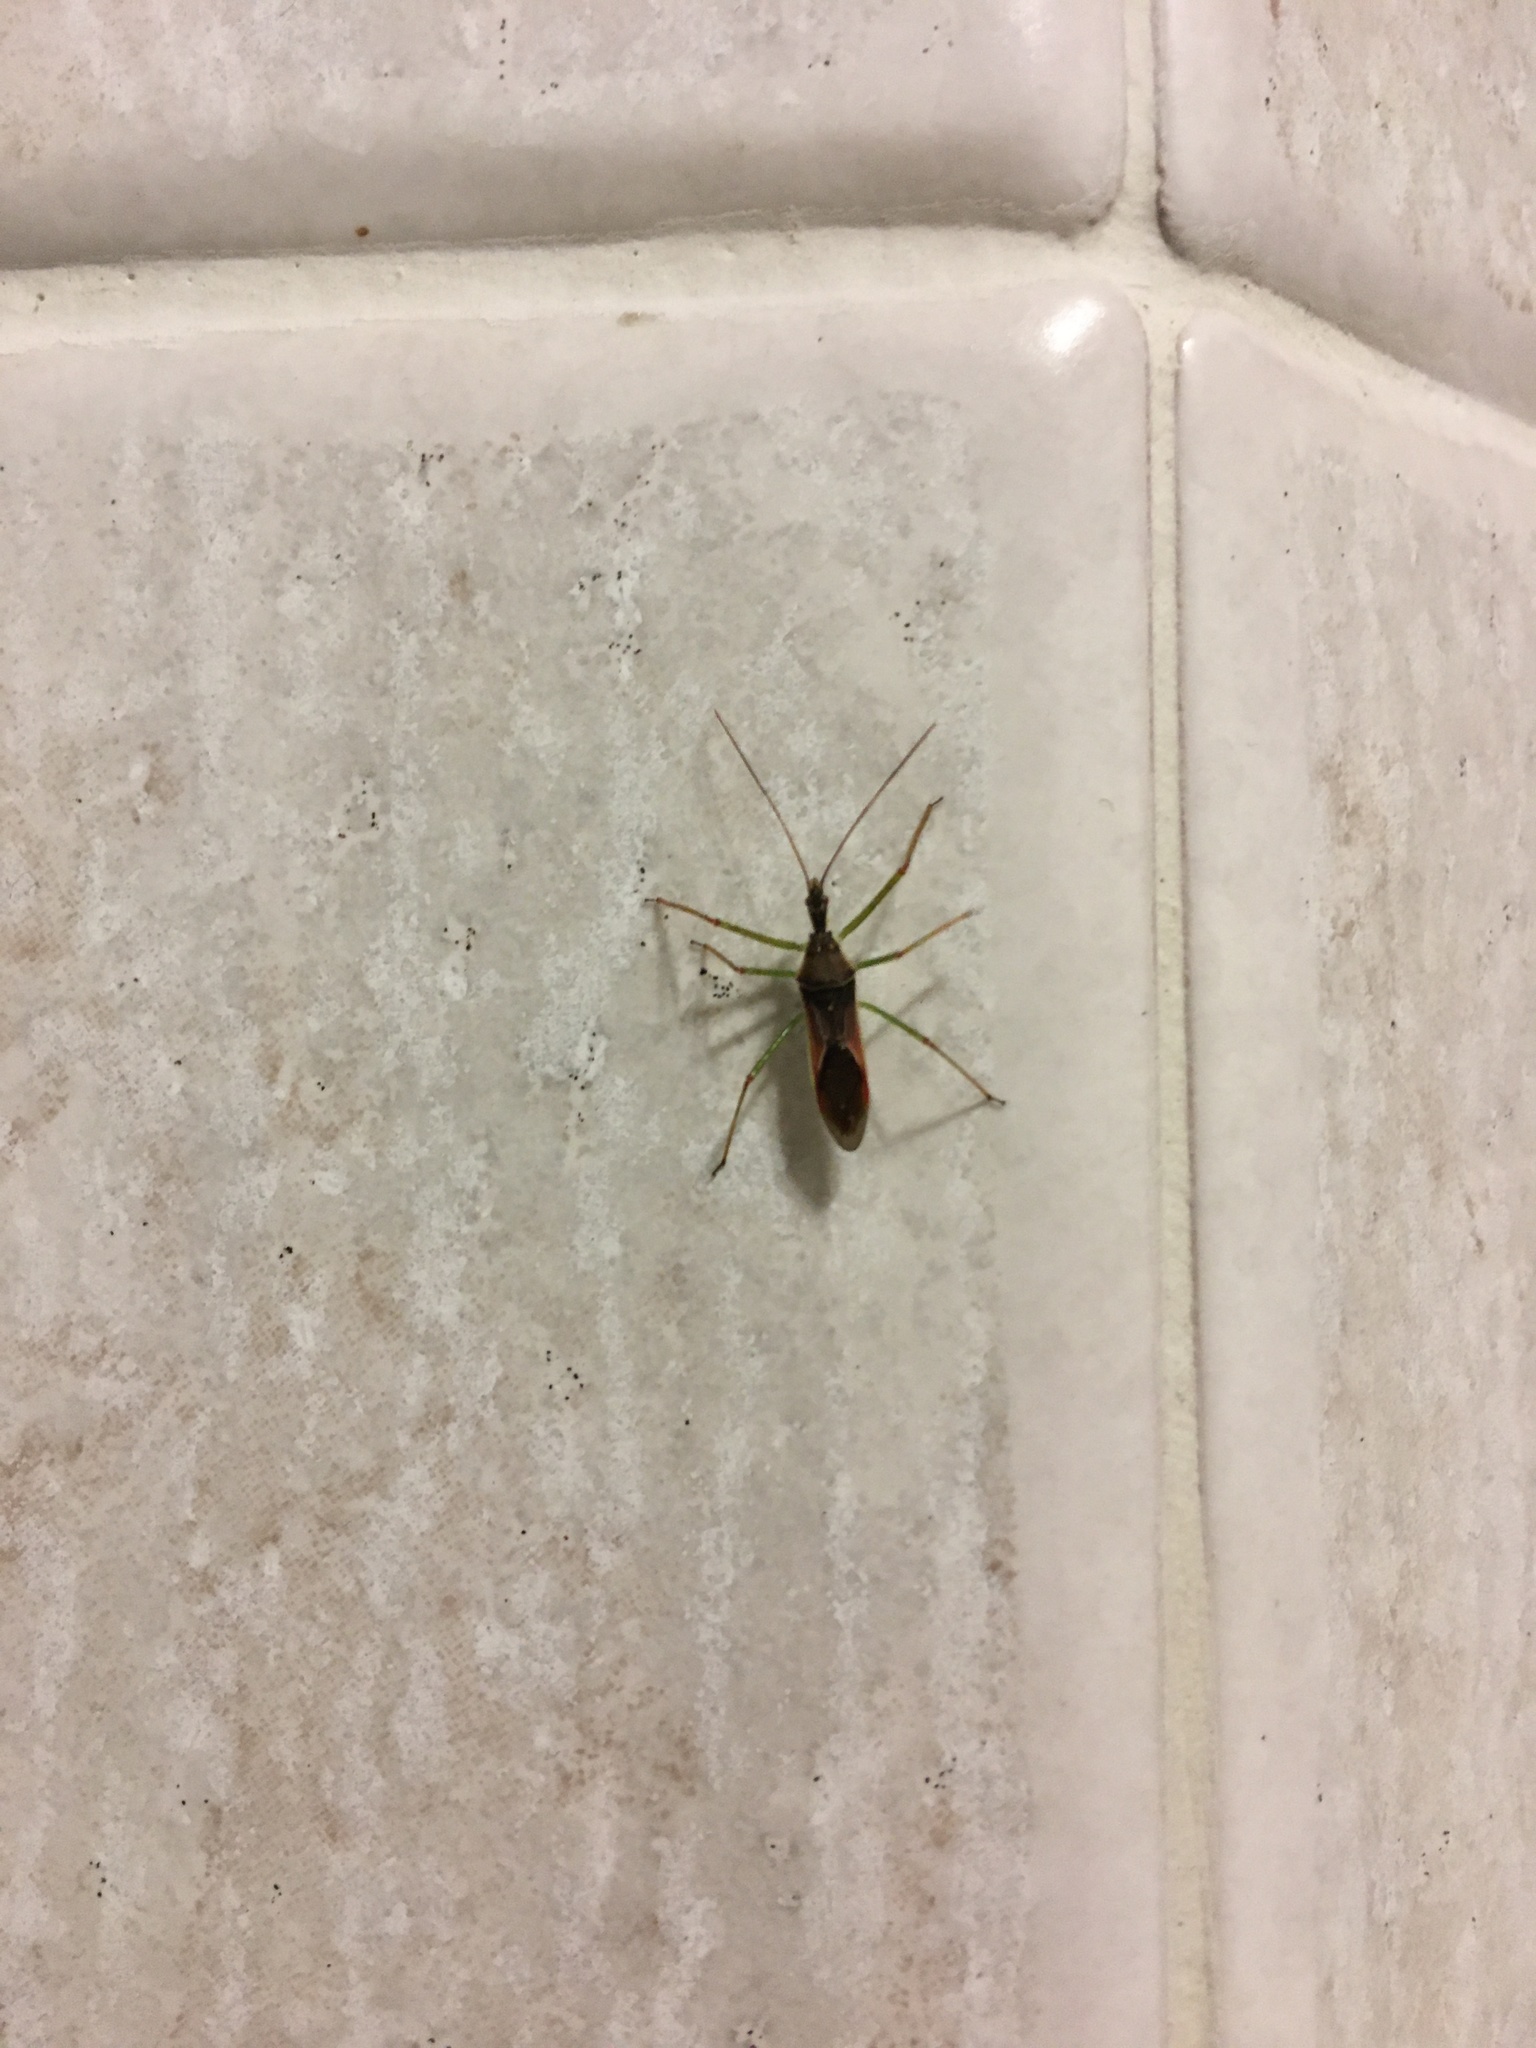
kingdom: Animalia
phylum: Arthropoda
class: Insecta
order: Hemiptera
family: Reduviidae
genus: Zelus
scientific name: Zelus renardii
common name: Assassin bug
